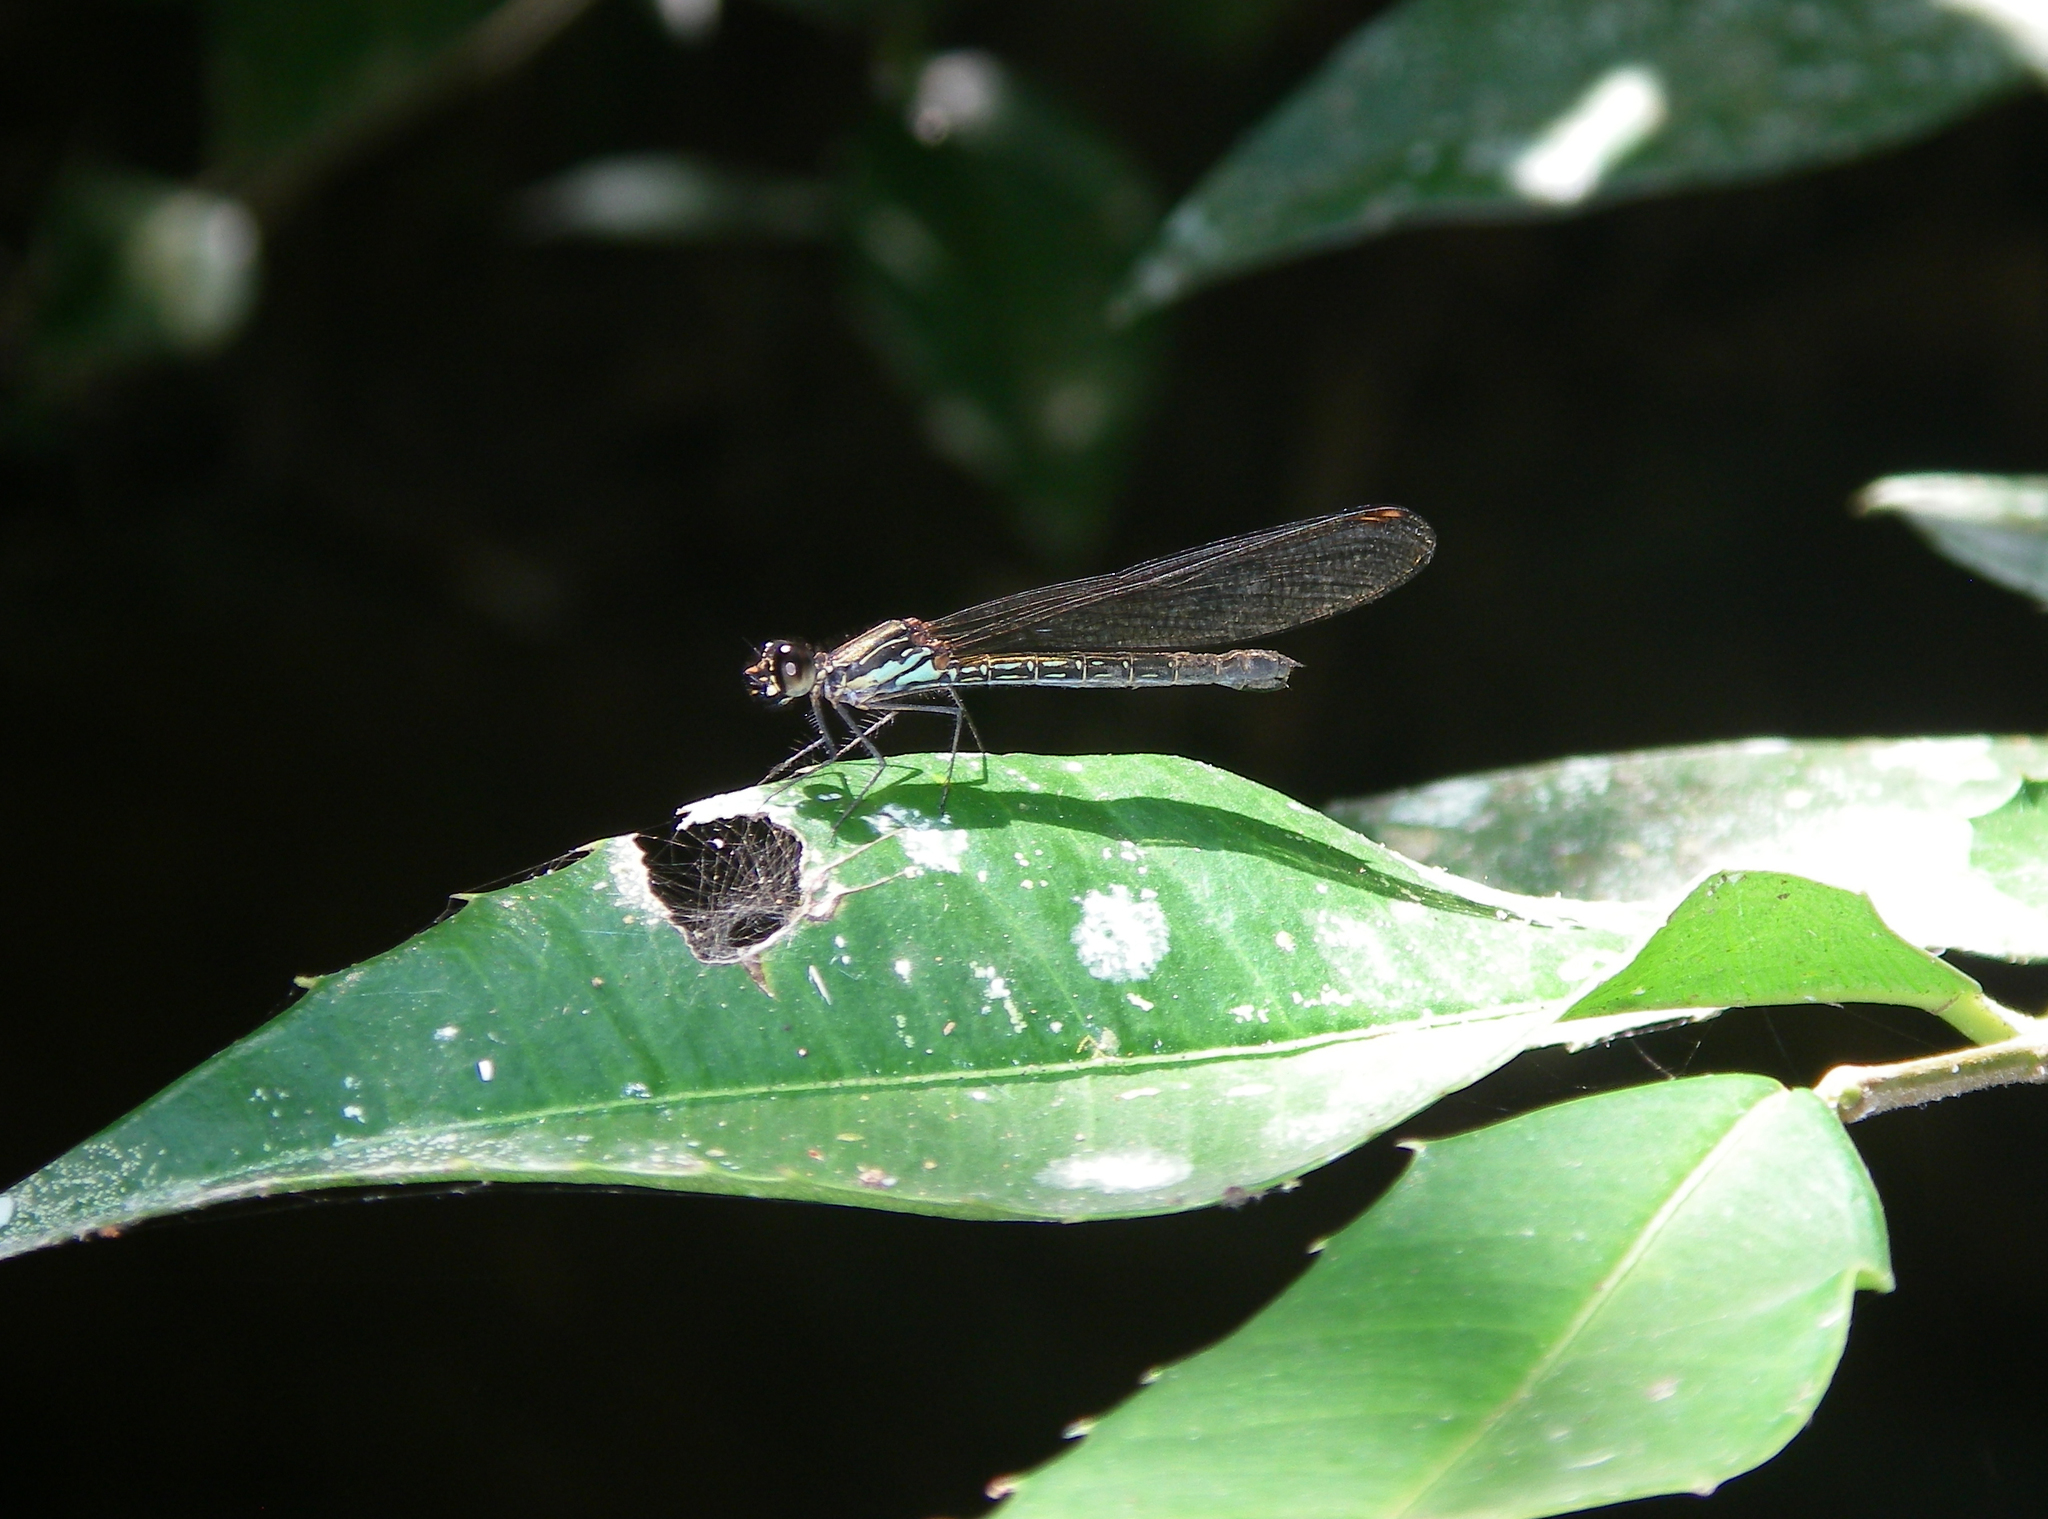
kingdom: Animalia
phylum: Arthropoda
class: Insecta
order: Odonata
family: Chlorocyphidae
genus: Heliocypha
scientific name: Heliocypha biforata
